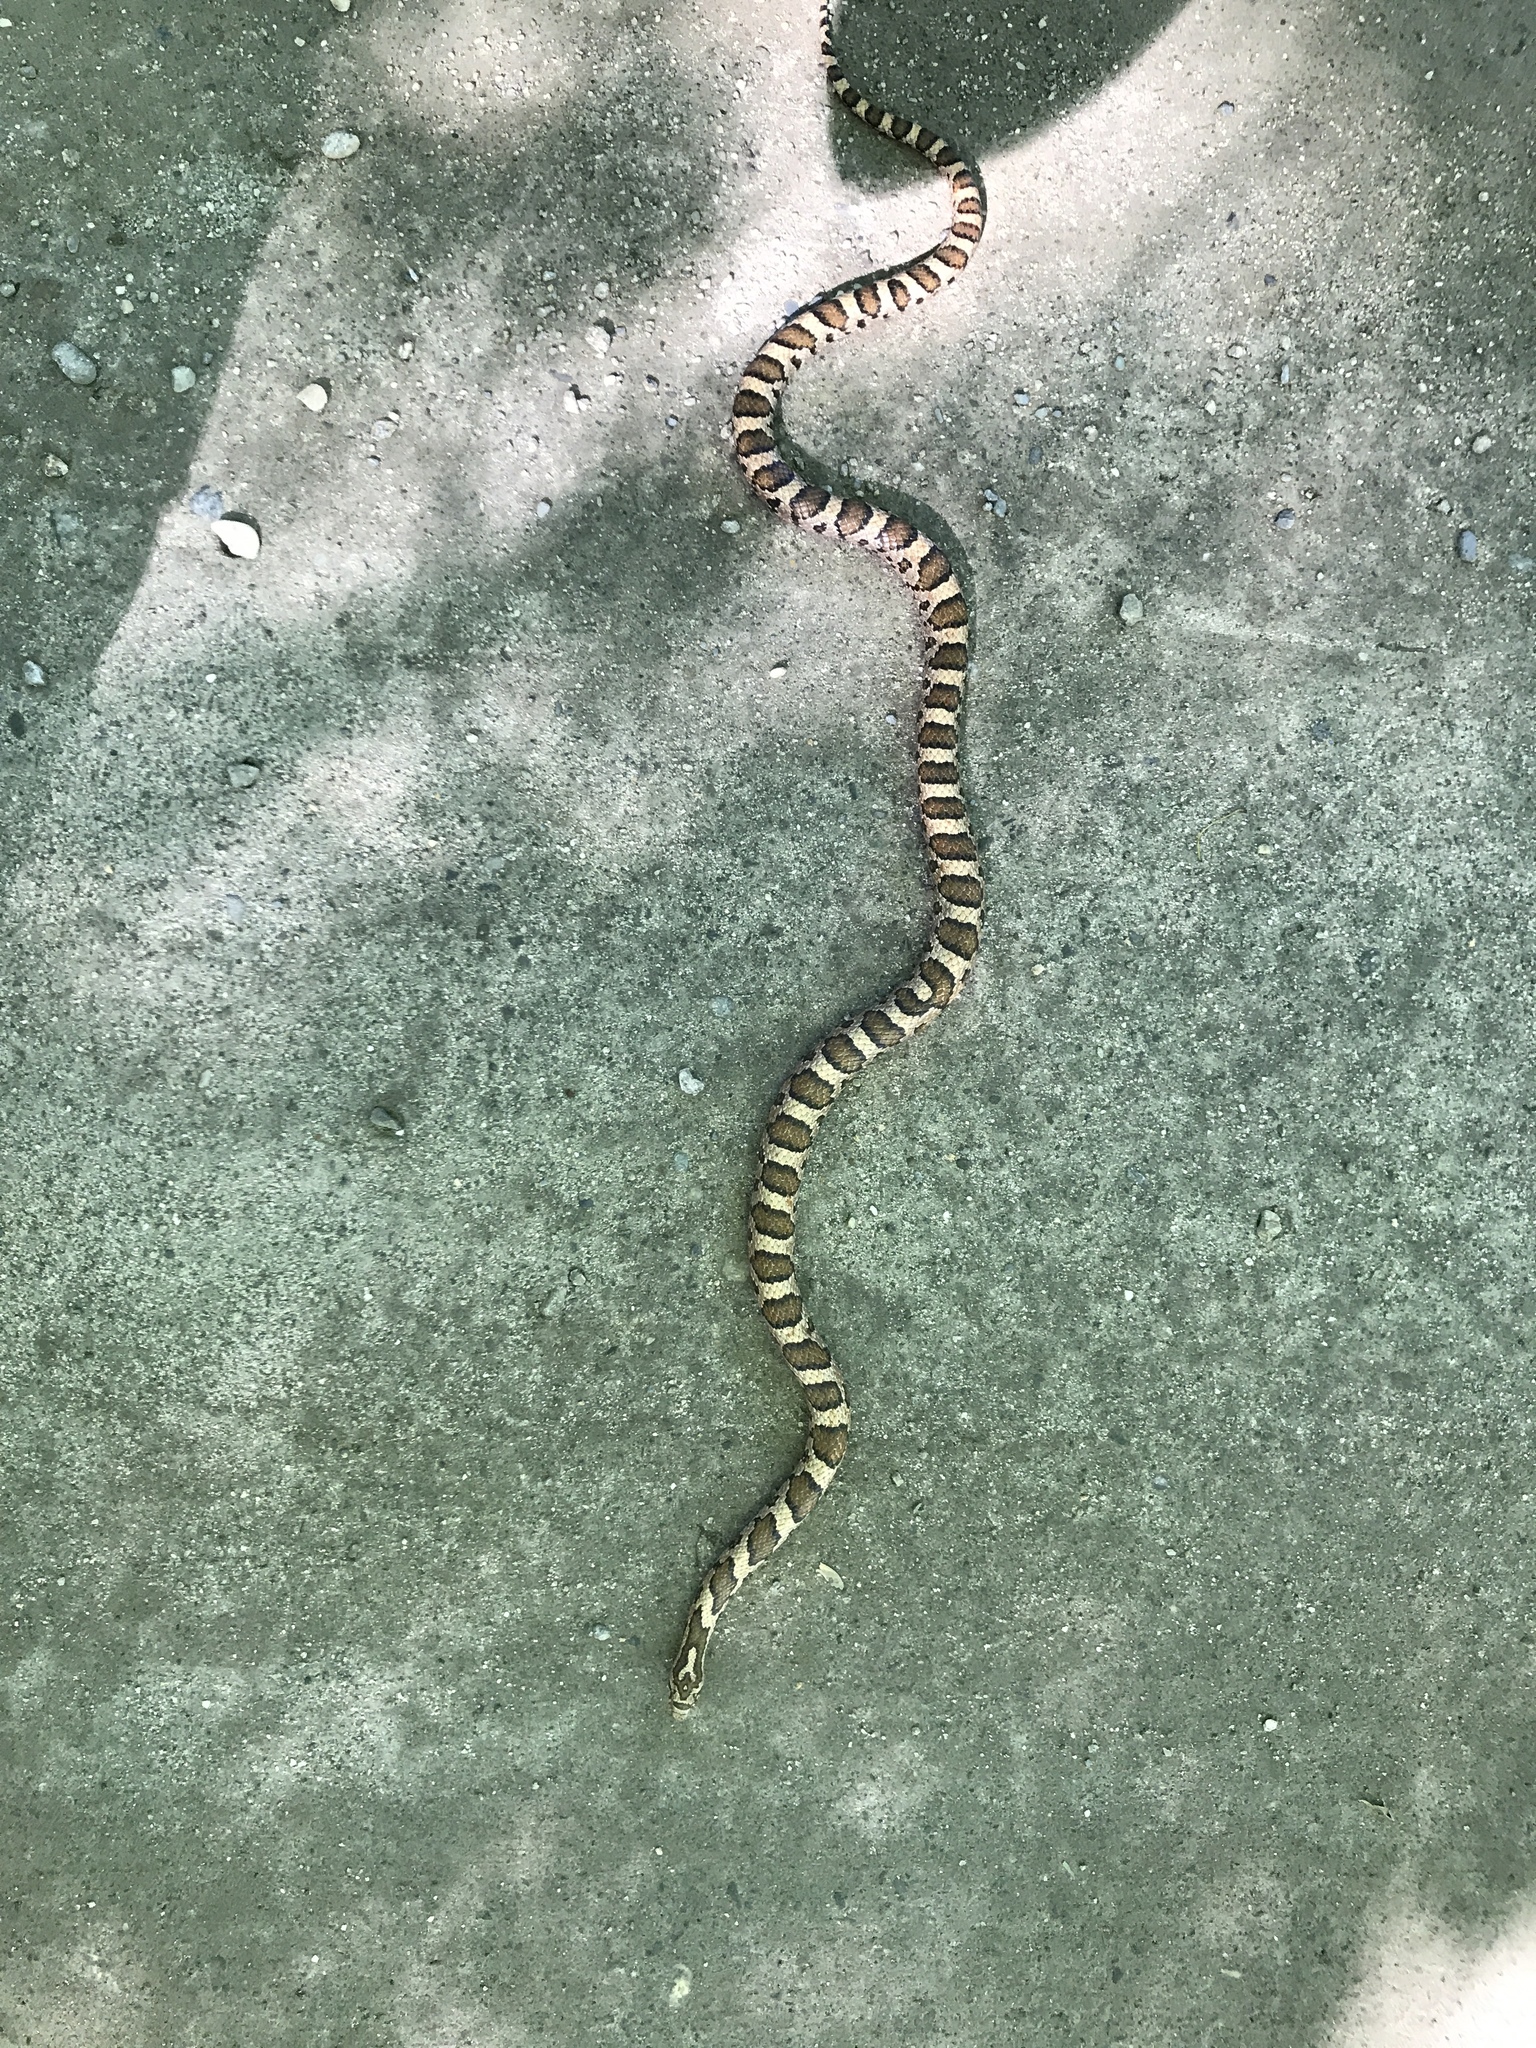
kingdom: Animalia
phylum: Chordata
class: Squamata
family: Colubridae
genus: Lampropeltis
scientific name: Lampropeltis triangulum
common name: Eastern milksnake
